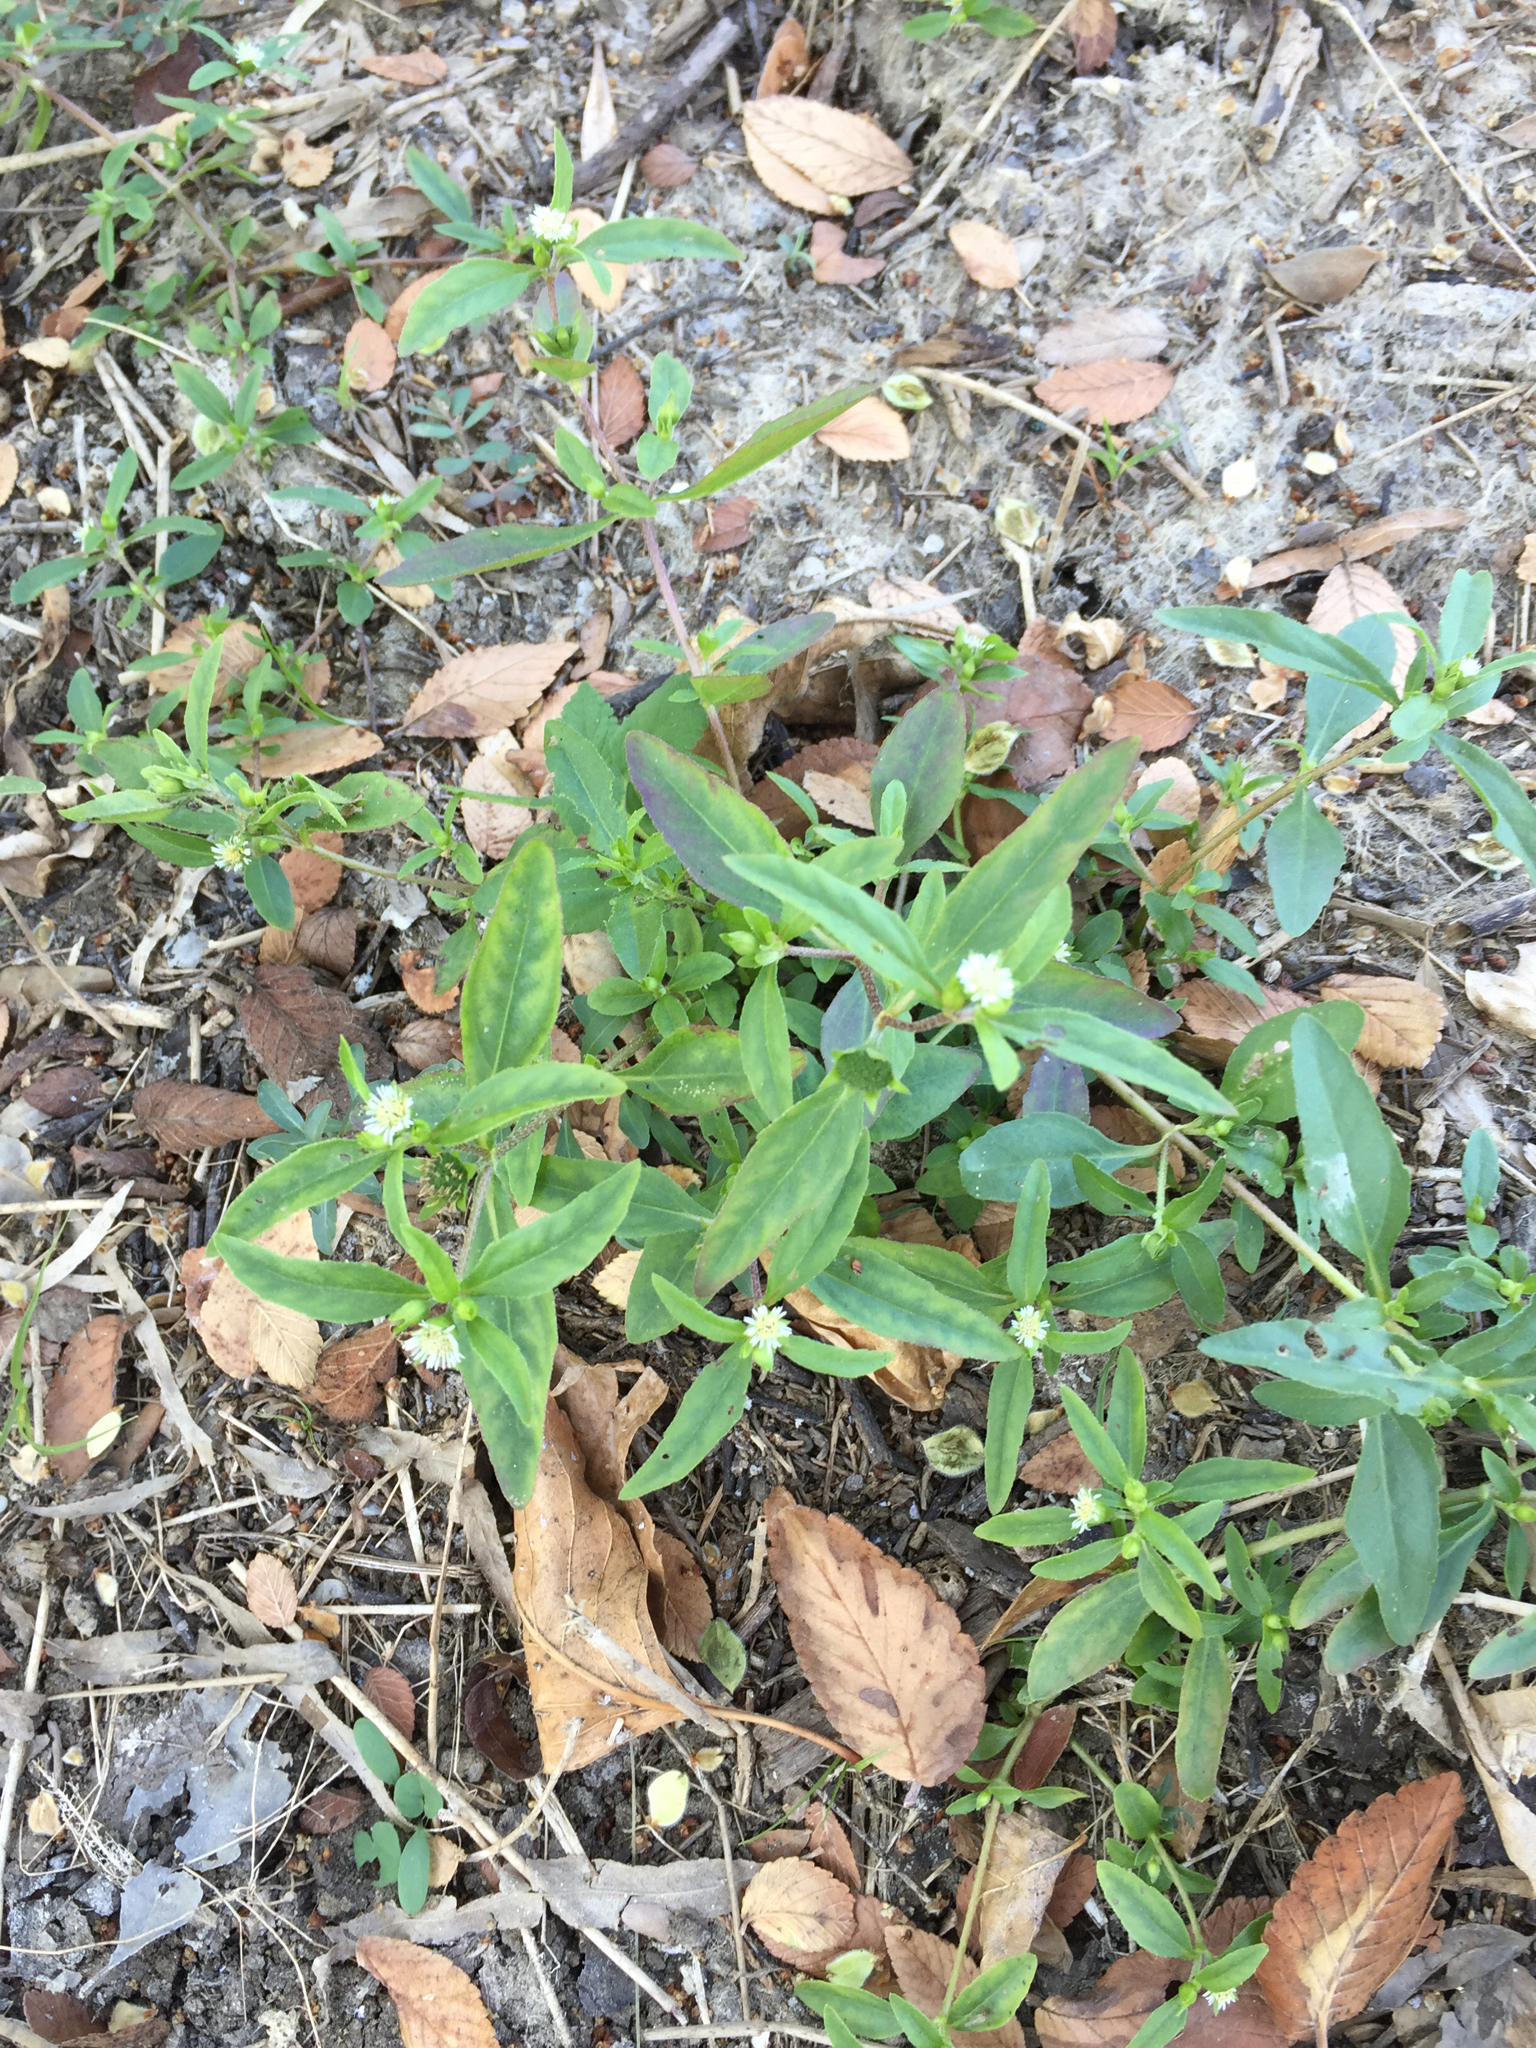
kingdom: Plantae
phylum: Tracheophyta
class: Magnoliopsida
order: Asterales
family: Asteraceae
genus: Eclipta
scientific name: Eclipta prostrata
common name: False daisy
